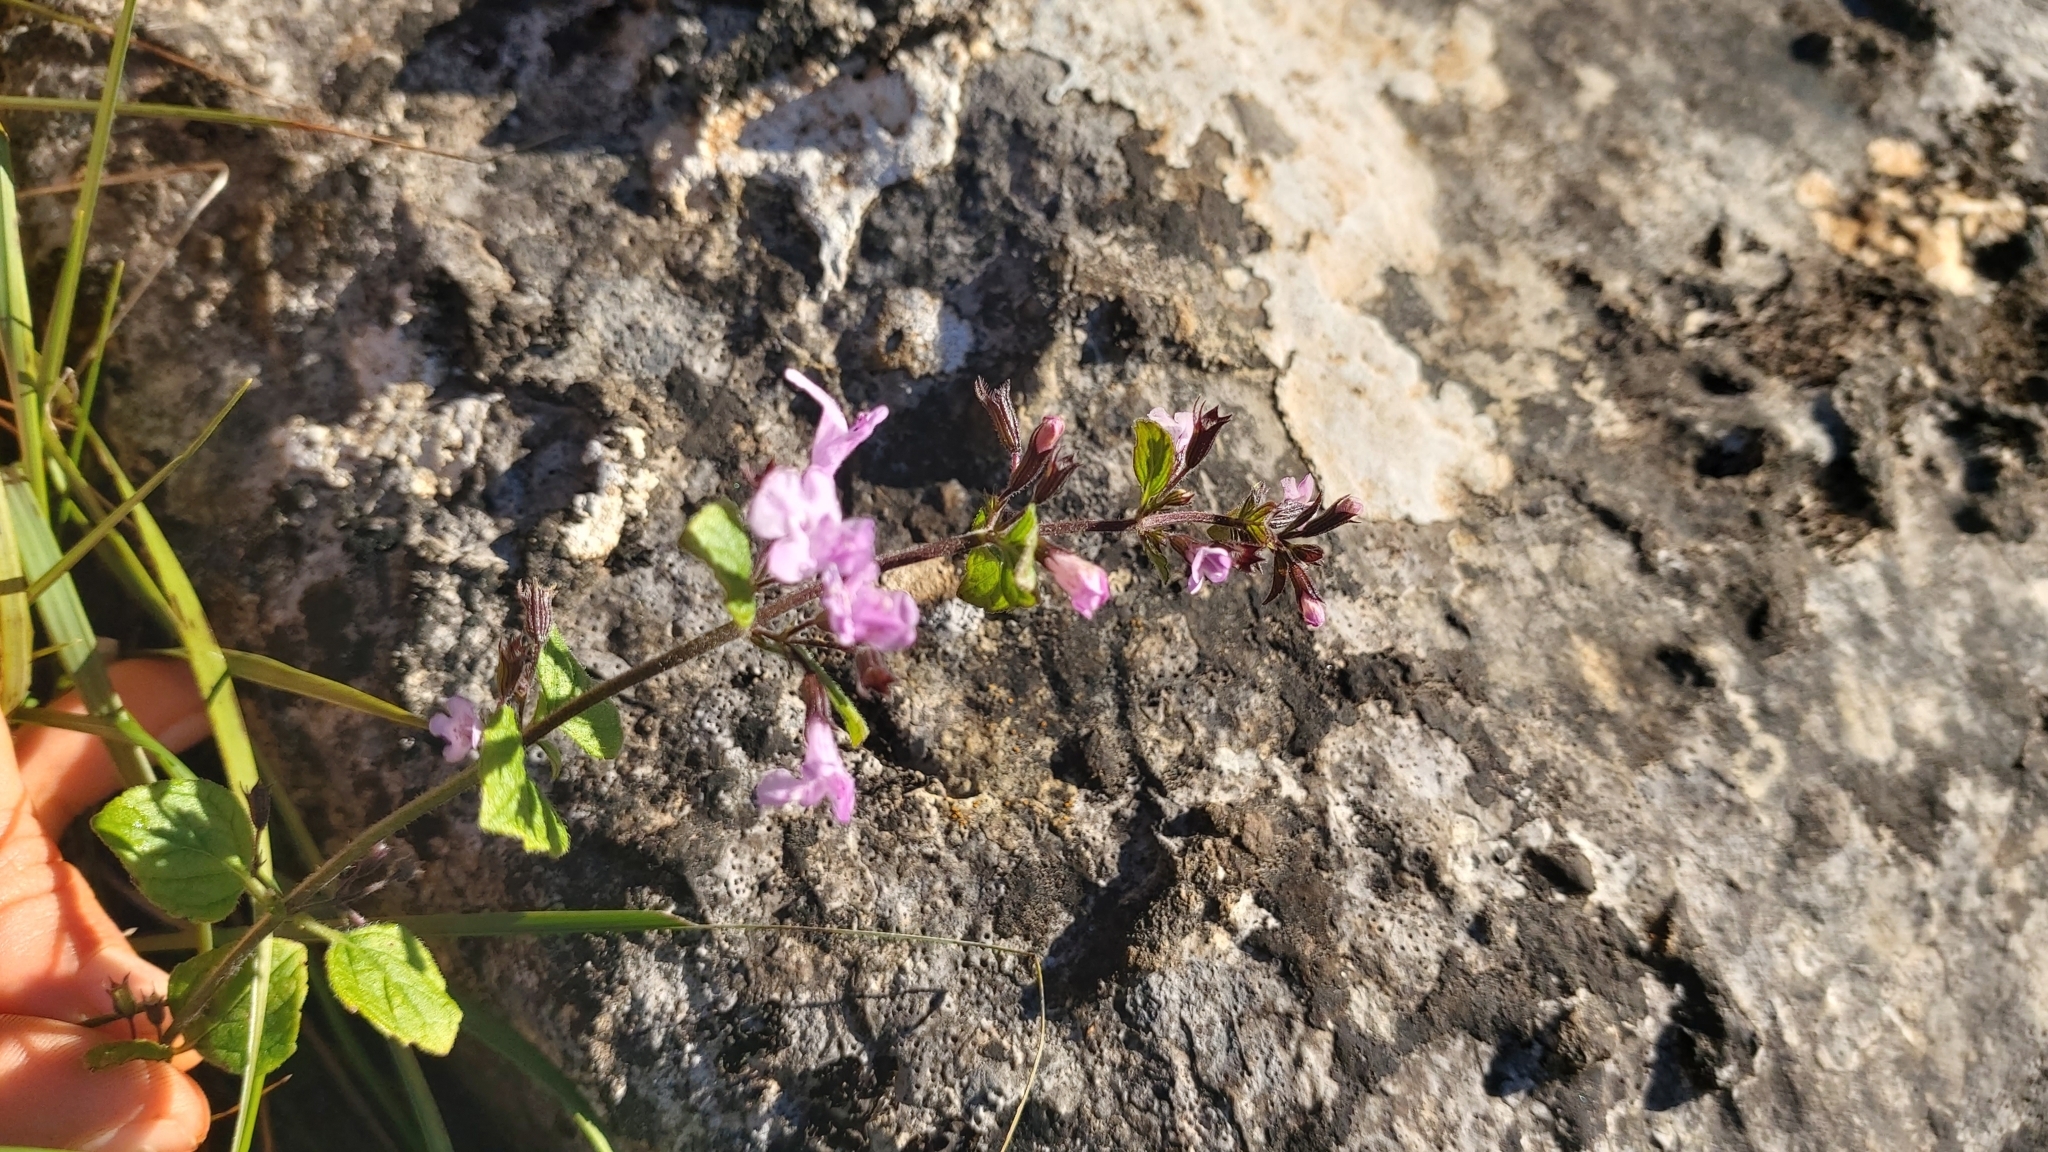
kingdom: Plantae
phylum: Tracheophyta
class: Magnoliopsida
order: Lamiales
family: Lamiaceae
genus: Clinopodium
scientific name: Clinopodium nepeta
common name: Lesser calamint
